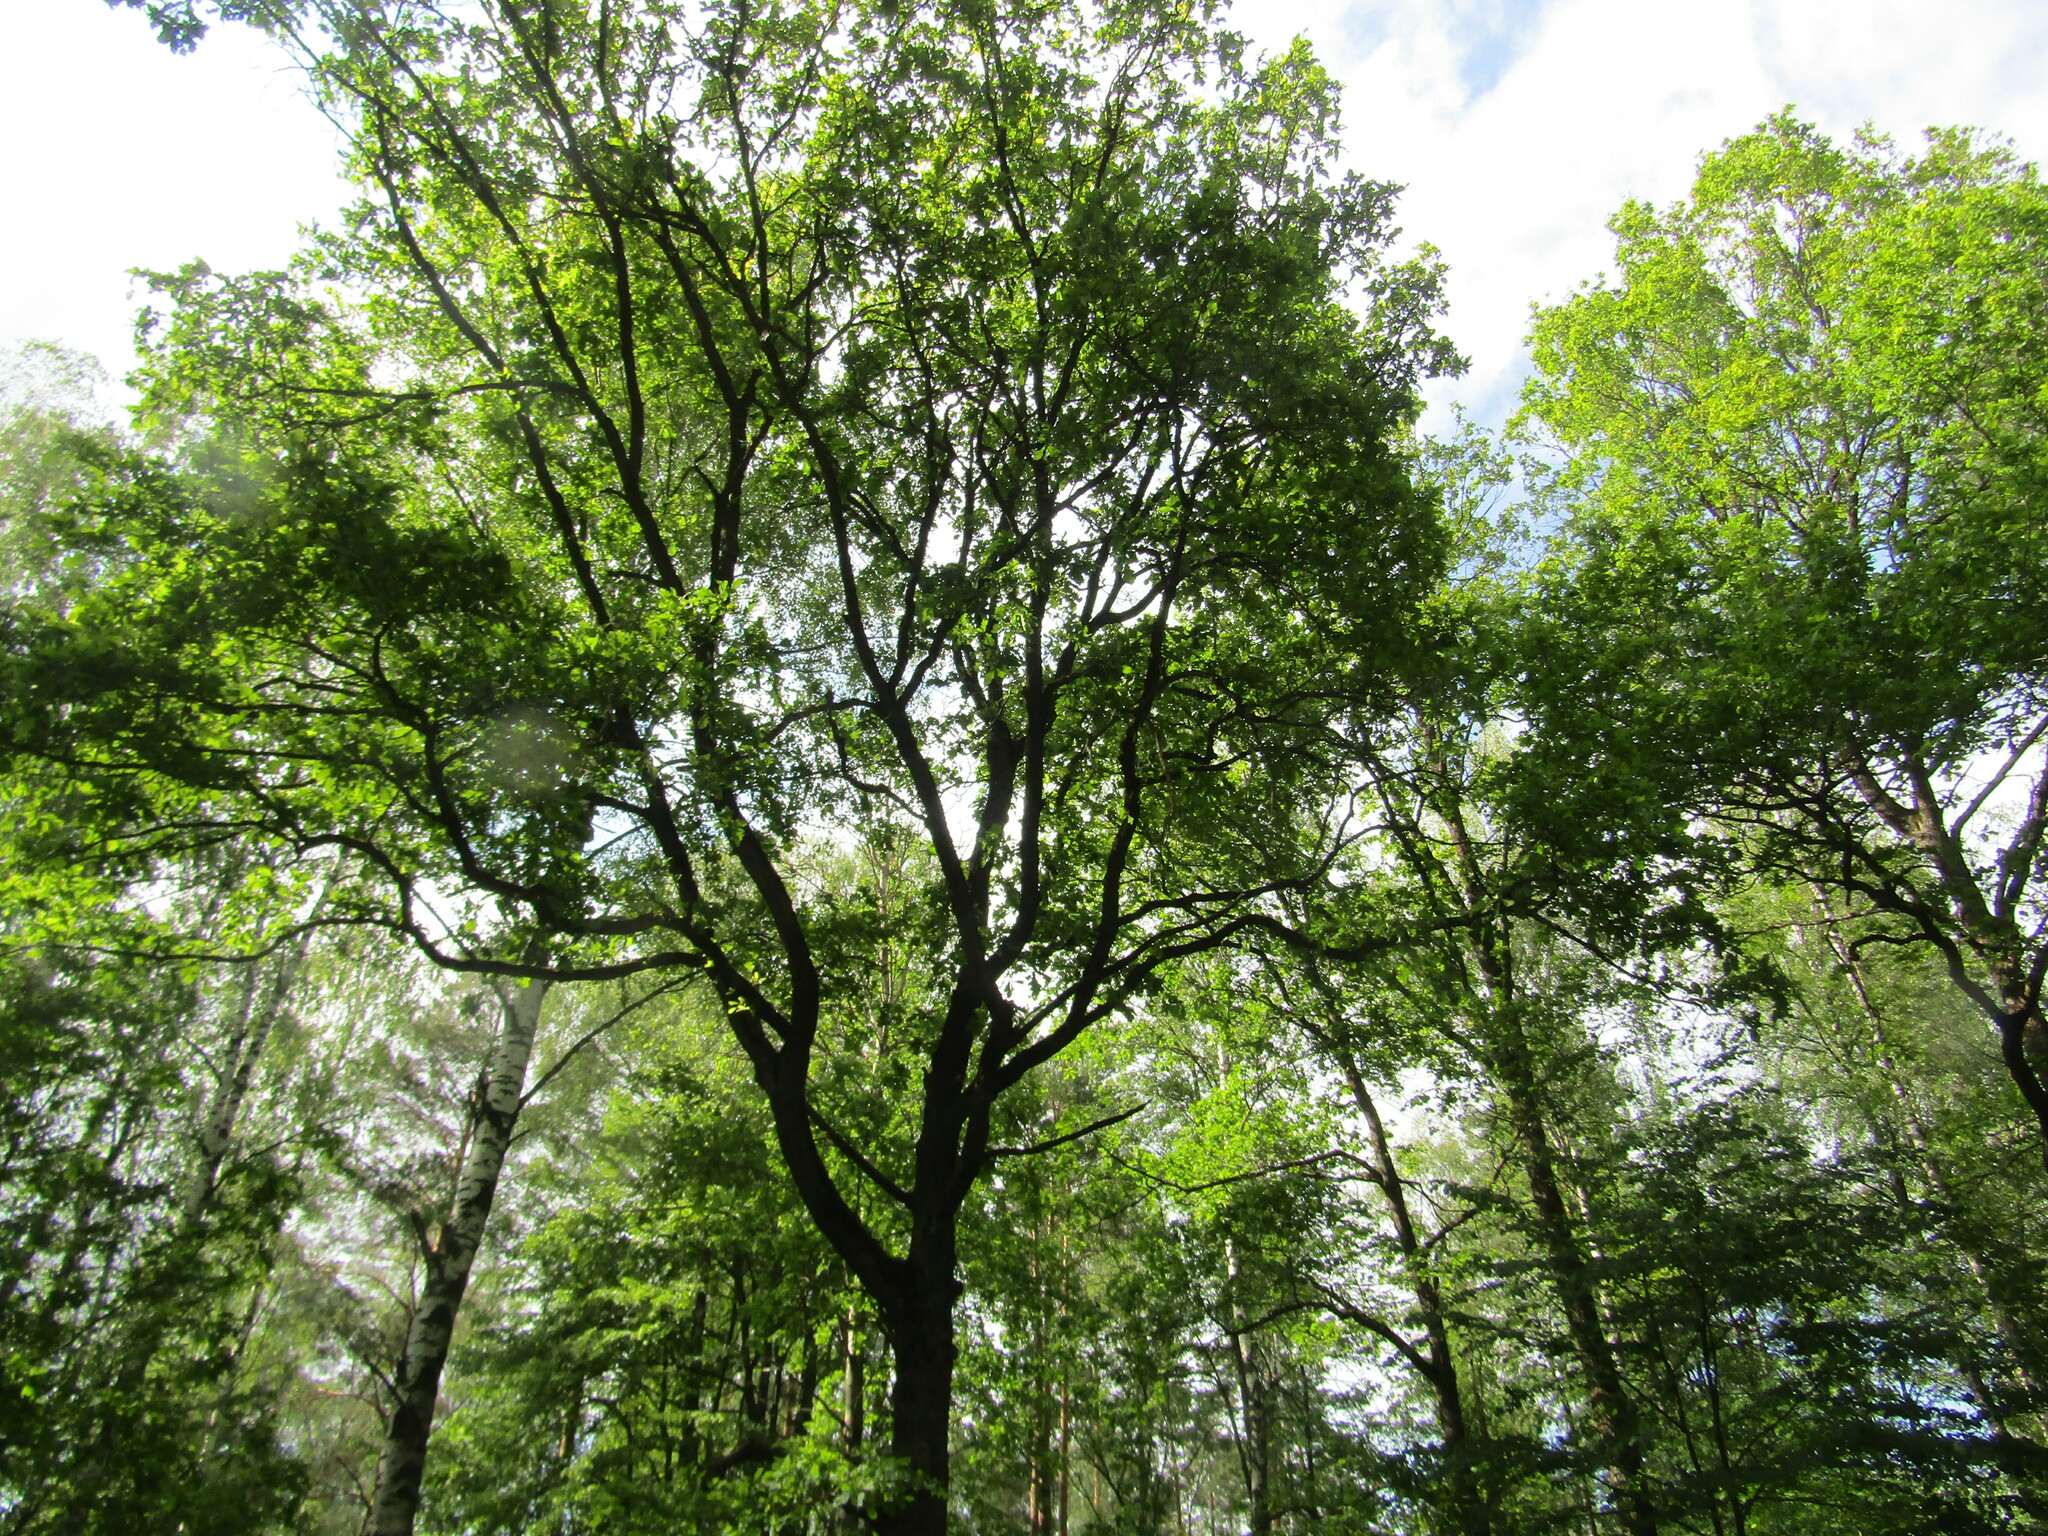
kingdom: Plantae
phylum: Tracheophyta
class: Magnoliopsida
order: Fagales
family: Fagaceae
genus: Quercus
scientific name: Quercus robur
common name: Pedunculate oak
